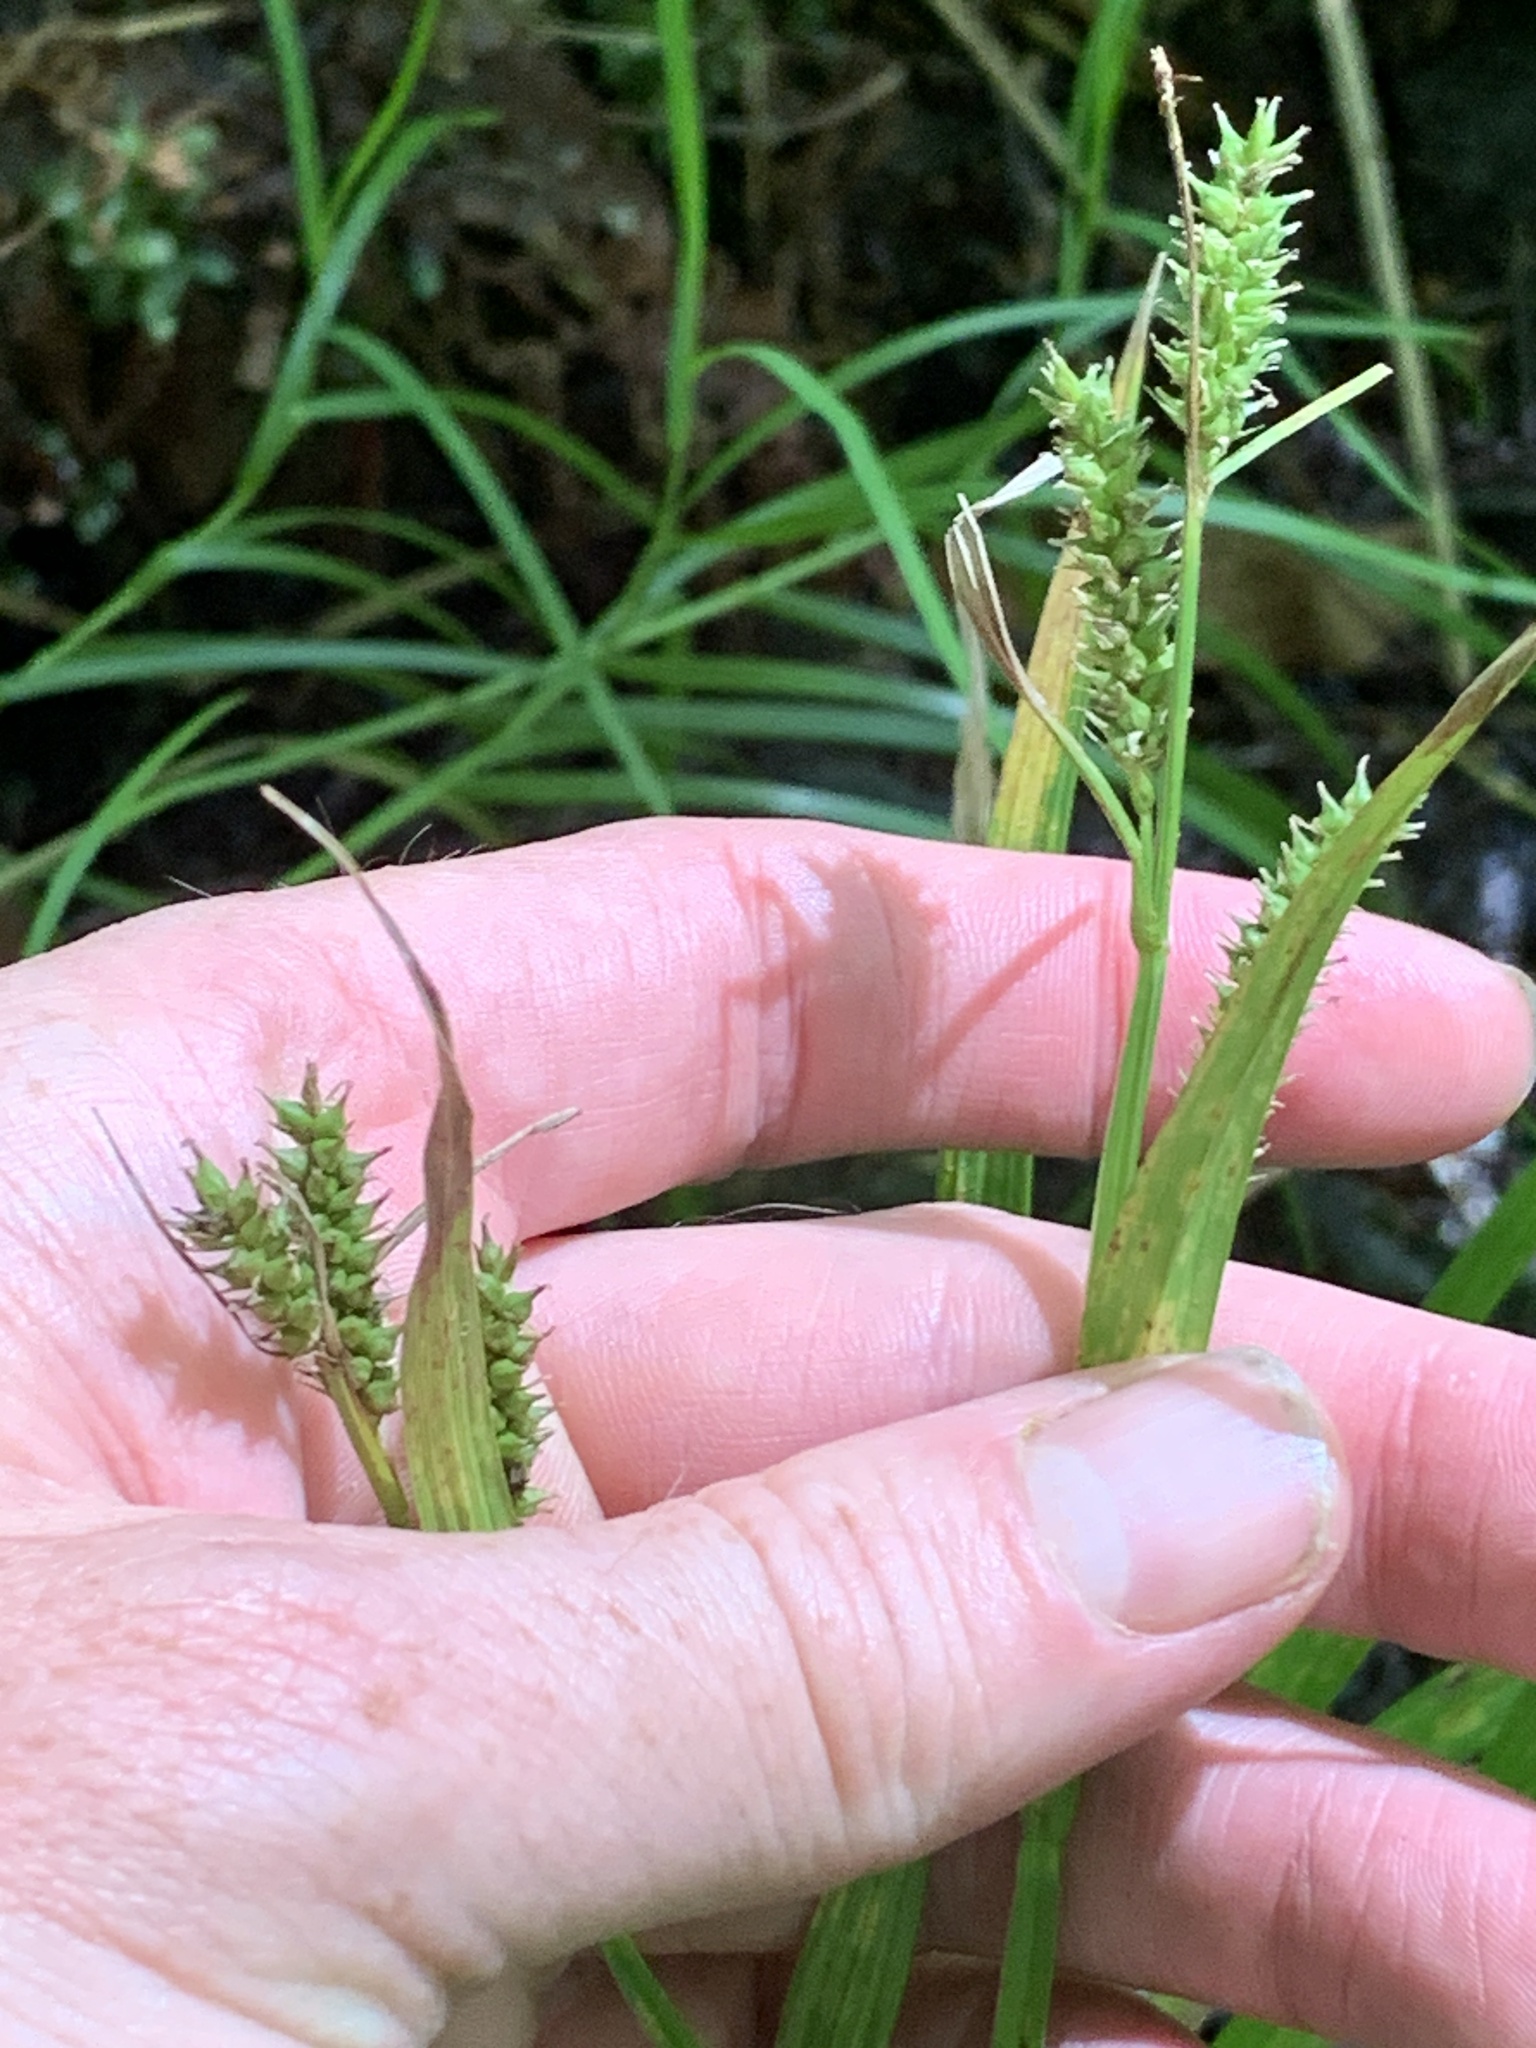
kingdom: Plantae
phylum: Tracheophyta
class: Liliopsida
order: Poales
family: Cyperaceae
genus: Carex
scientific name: Carex scabrata
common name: Eastern rough sedge
